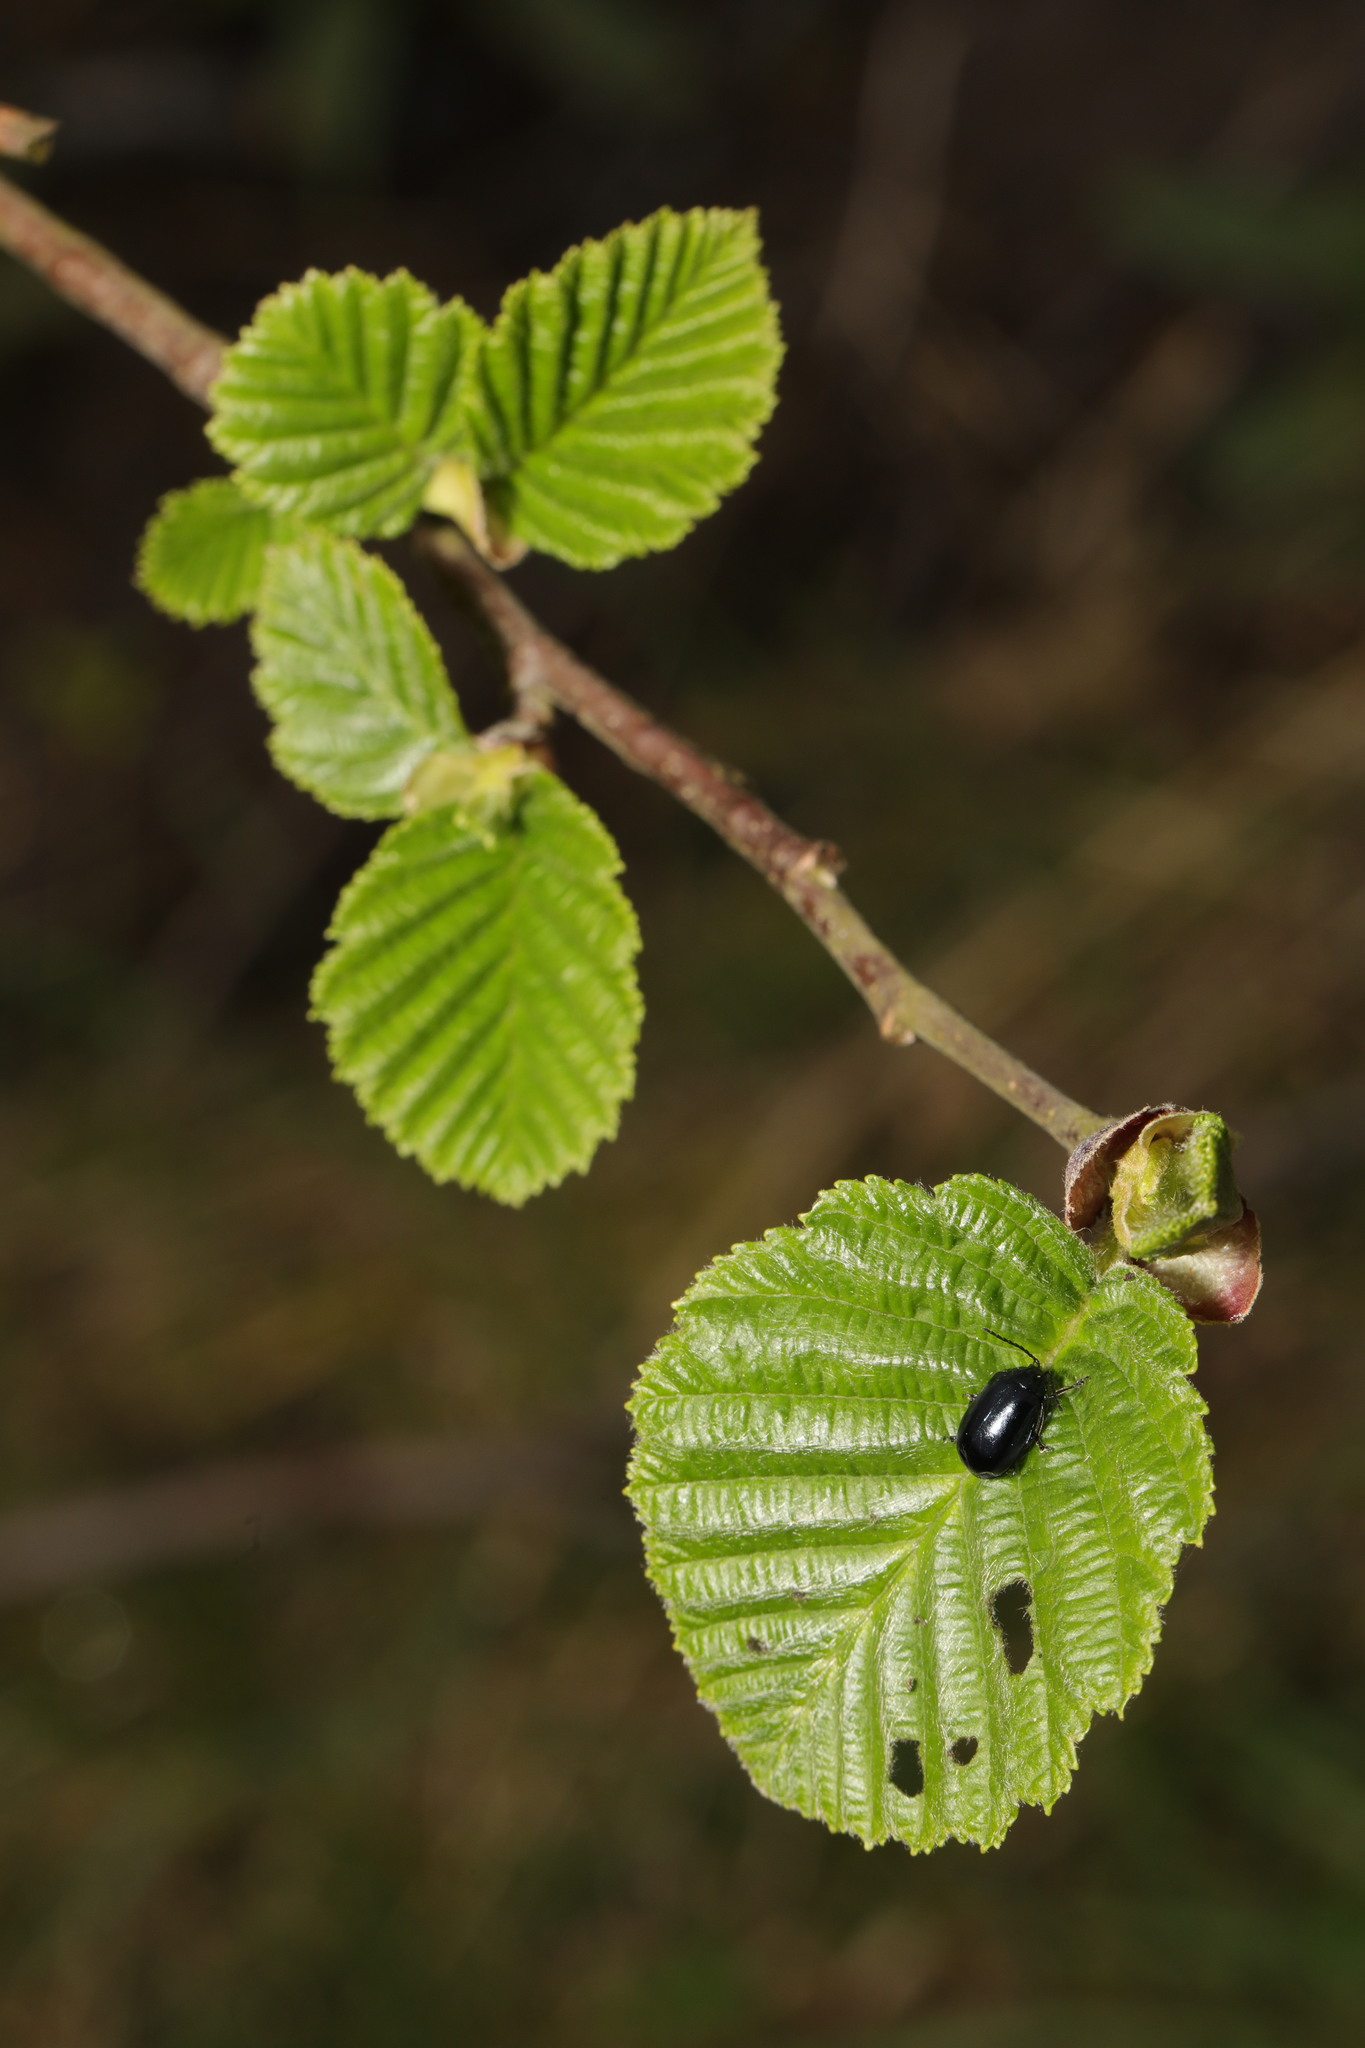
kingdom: Plantae
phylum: Tracheophyta
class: Magnoliopsida
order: Fagales
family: Betulaceae
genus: Alnus
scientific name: Alnus glutinosa
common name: Black alder
